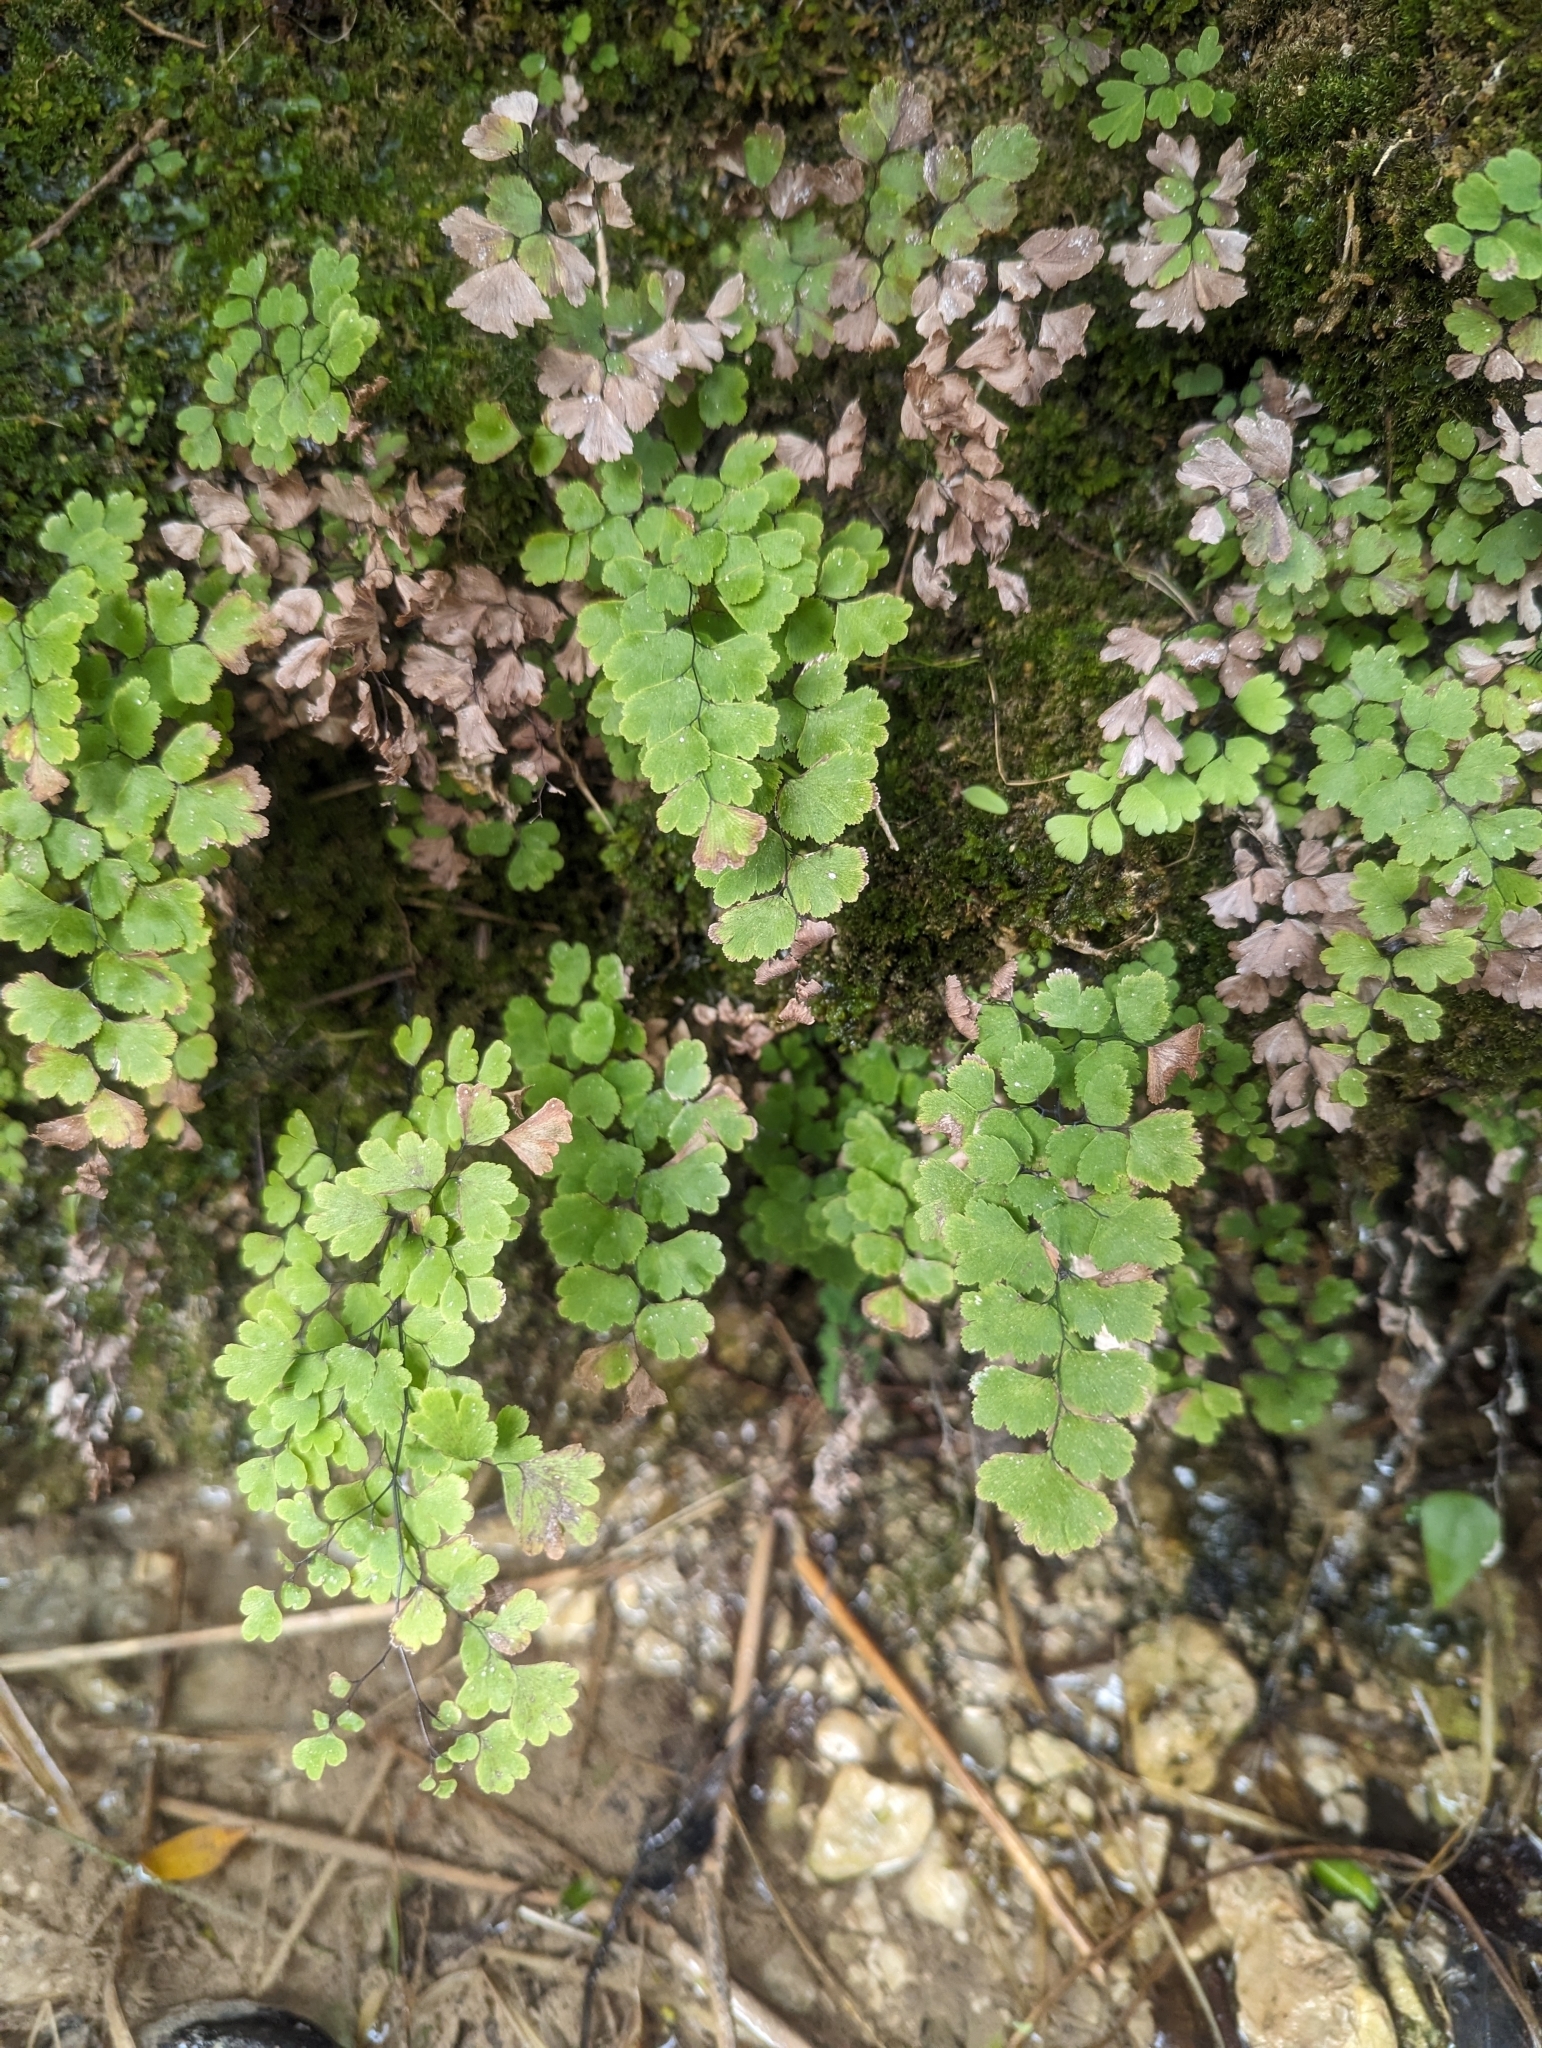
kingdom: Plantae
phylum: Tracheophyta
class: Polypodiopsida
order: Polypodiales
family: Pteridaceae
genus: Adiantum
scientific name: Adiantum capillus-veneris
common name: Maidenhair fern
